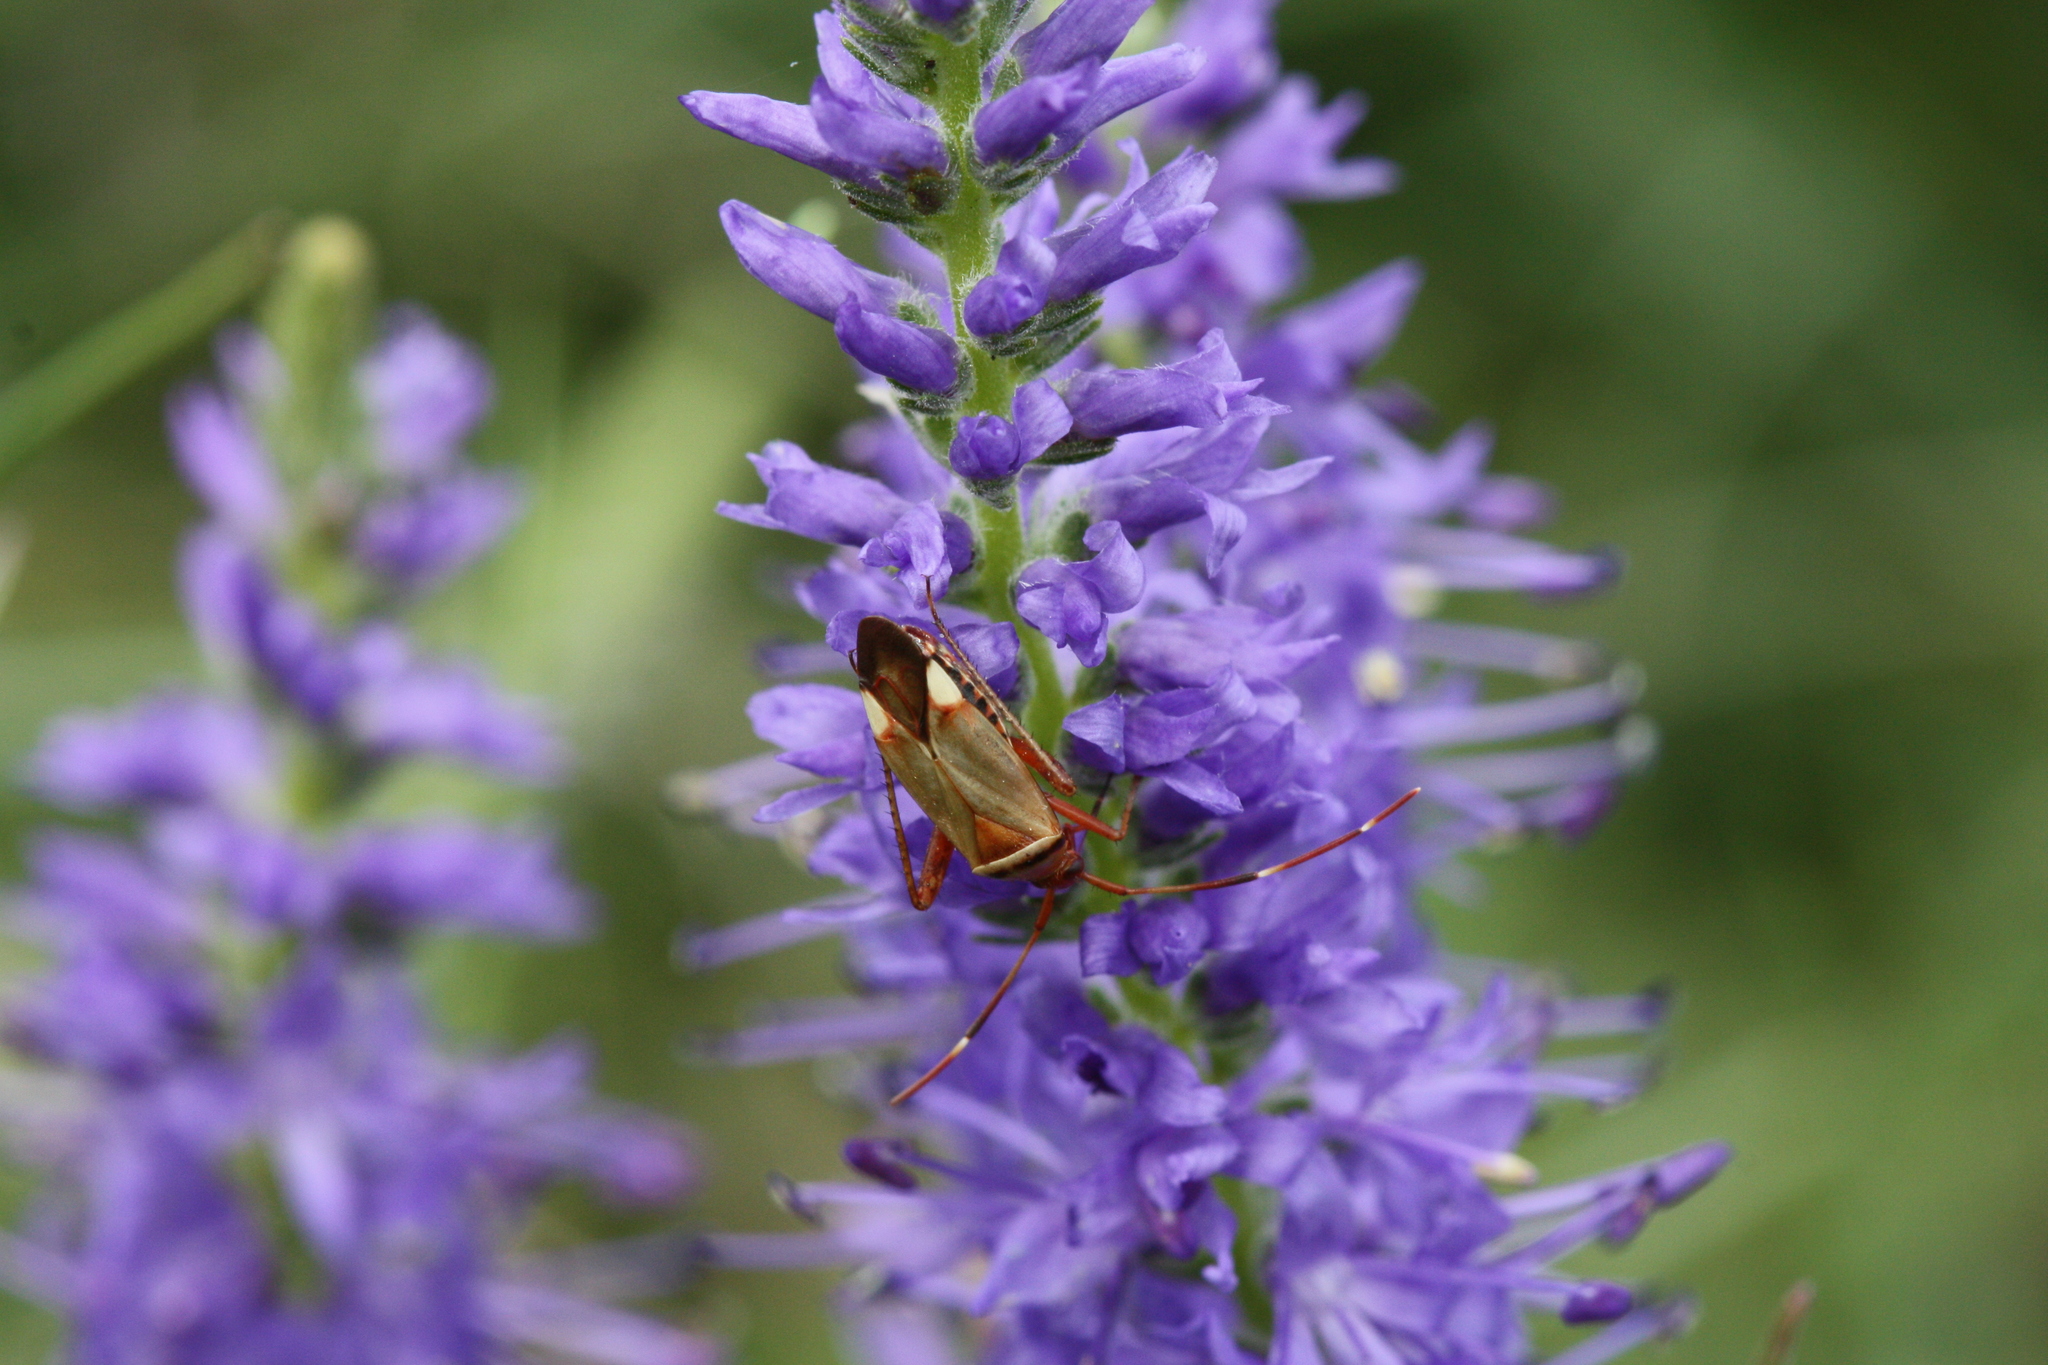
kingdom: Animalia
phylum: Arthropoda
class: Insecta
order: Hemiptera
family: Miridae
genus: Adelphocoris
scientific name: Adelphocoris vandalicus
